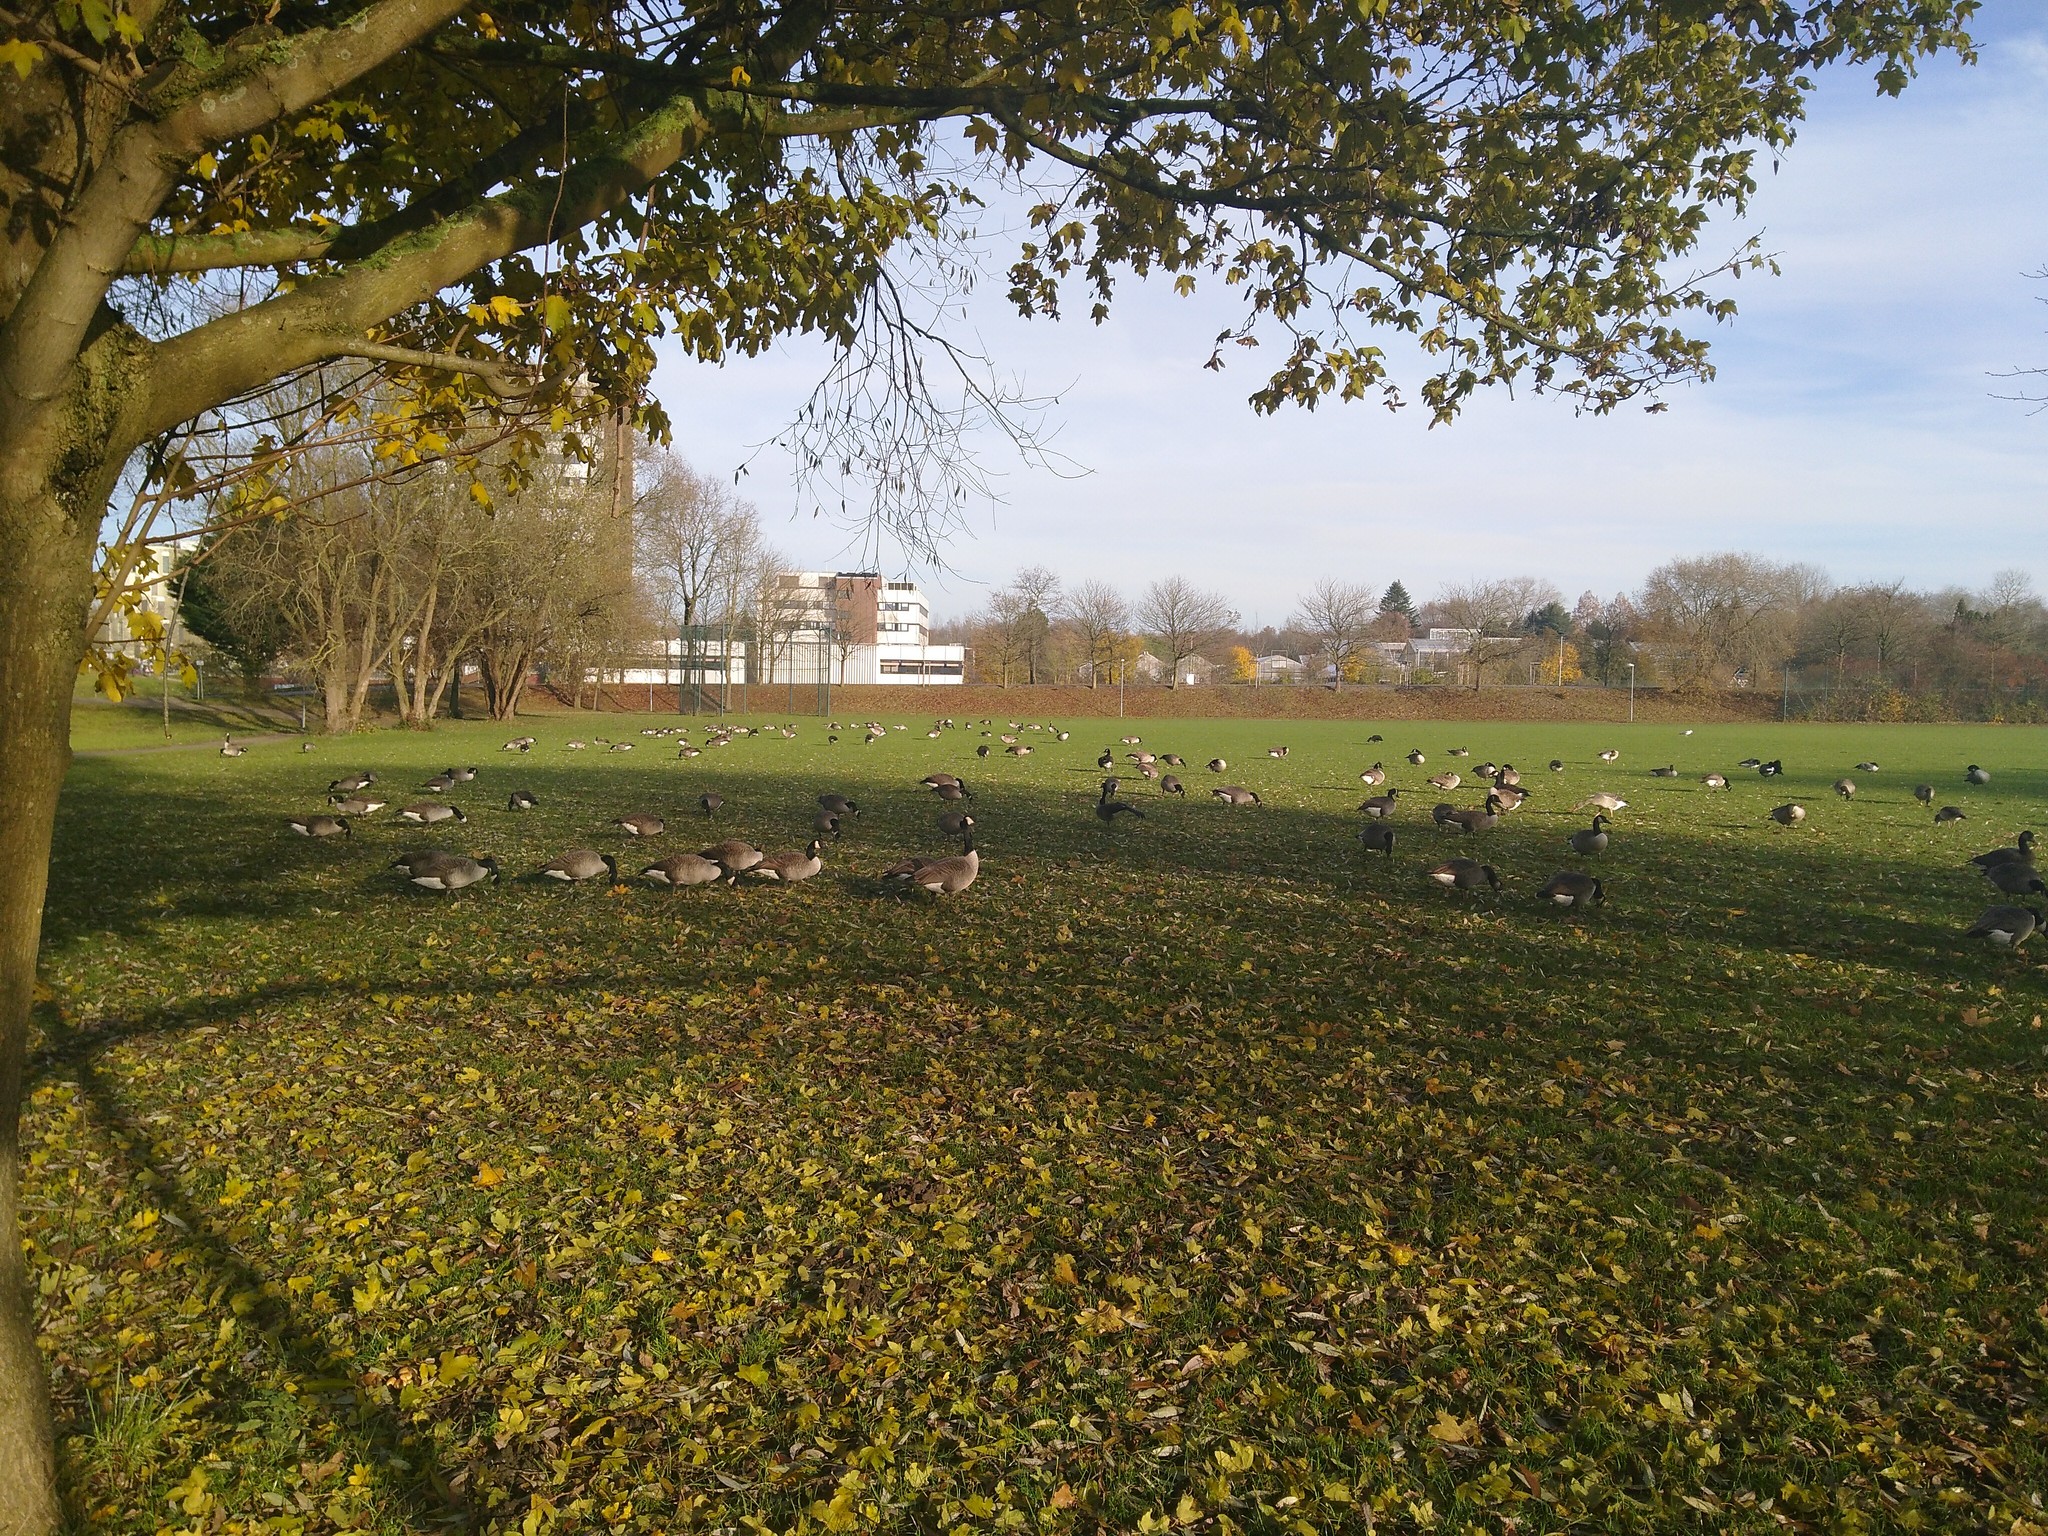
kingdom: Animalia
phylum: Chordata
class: Aves
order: Anseriformes
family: Anatidae
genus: Branta
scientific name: Branta canadensis
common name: Canada goose
